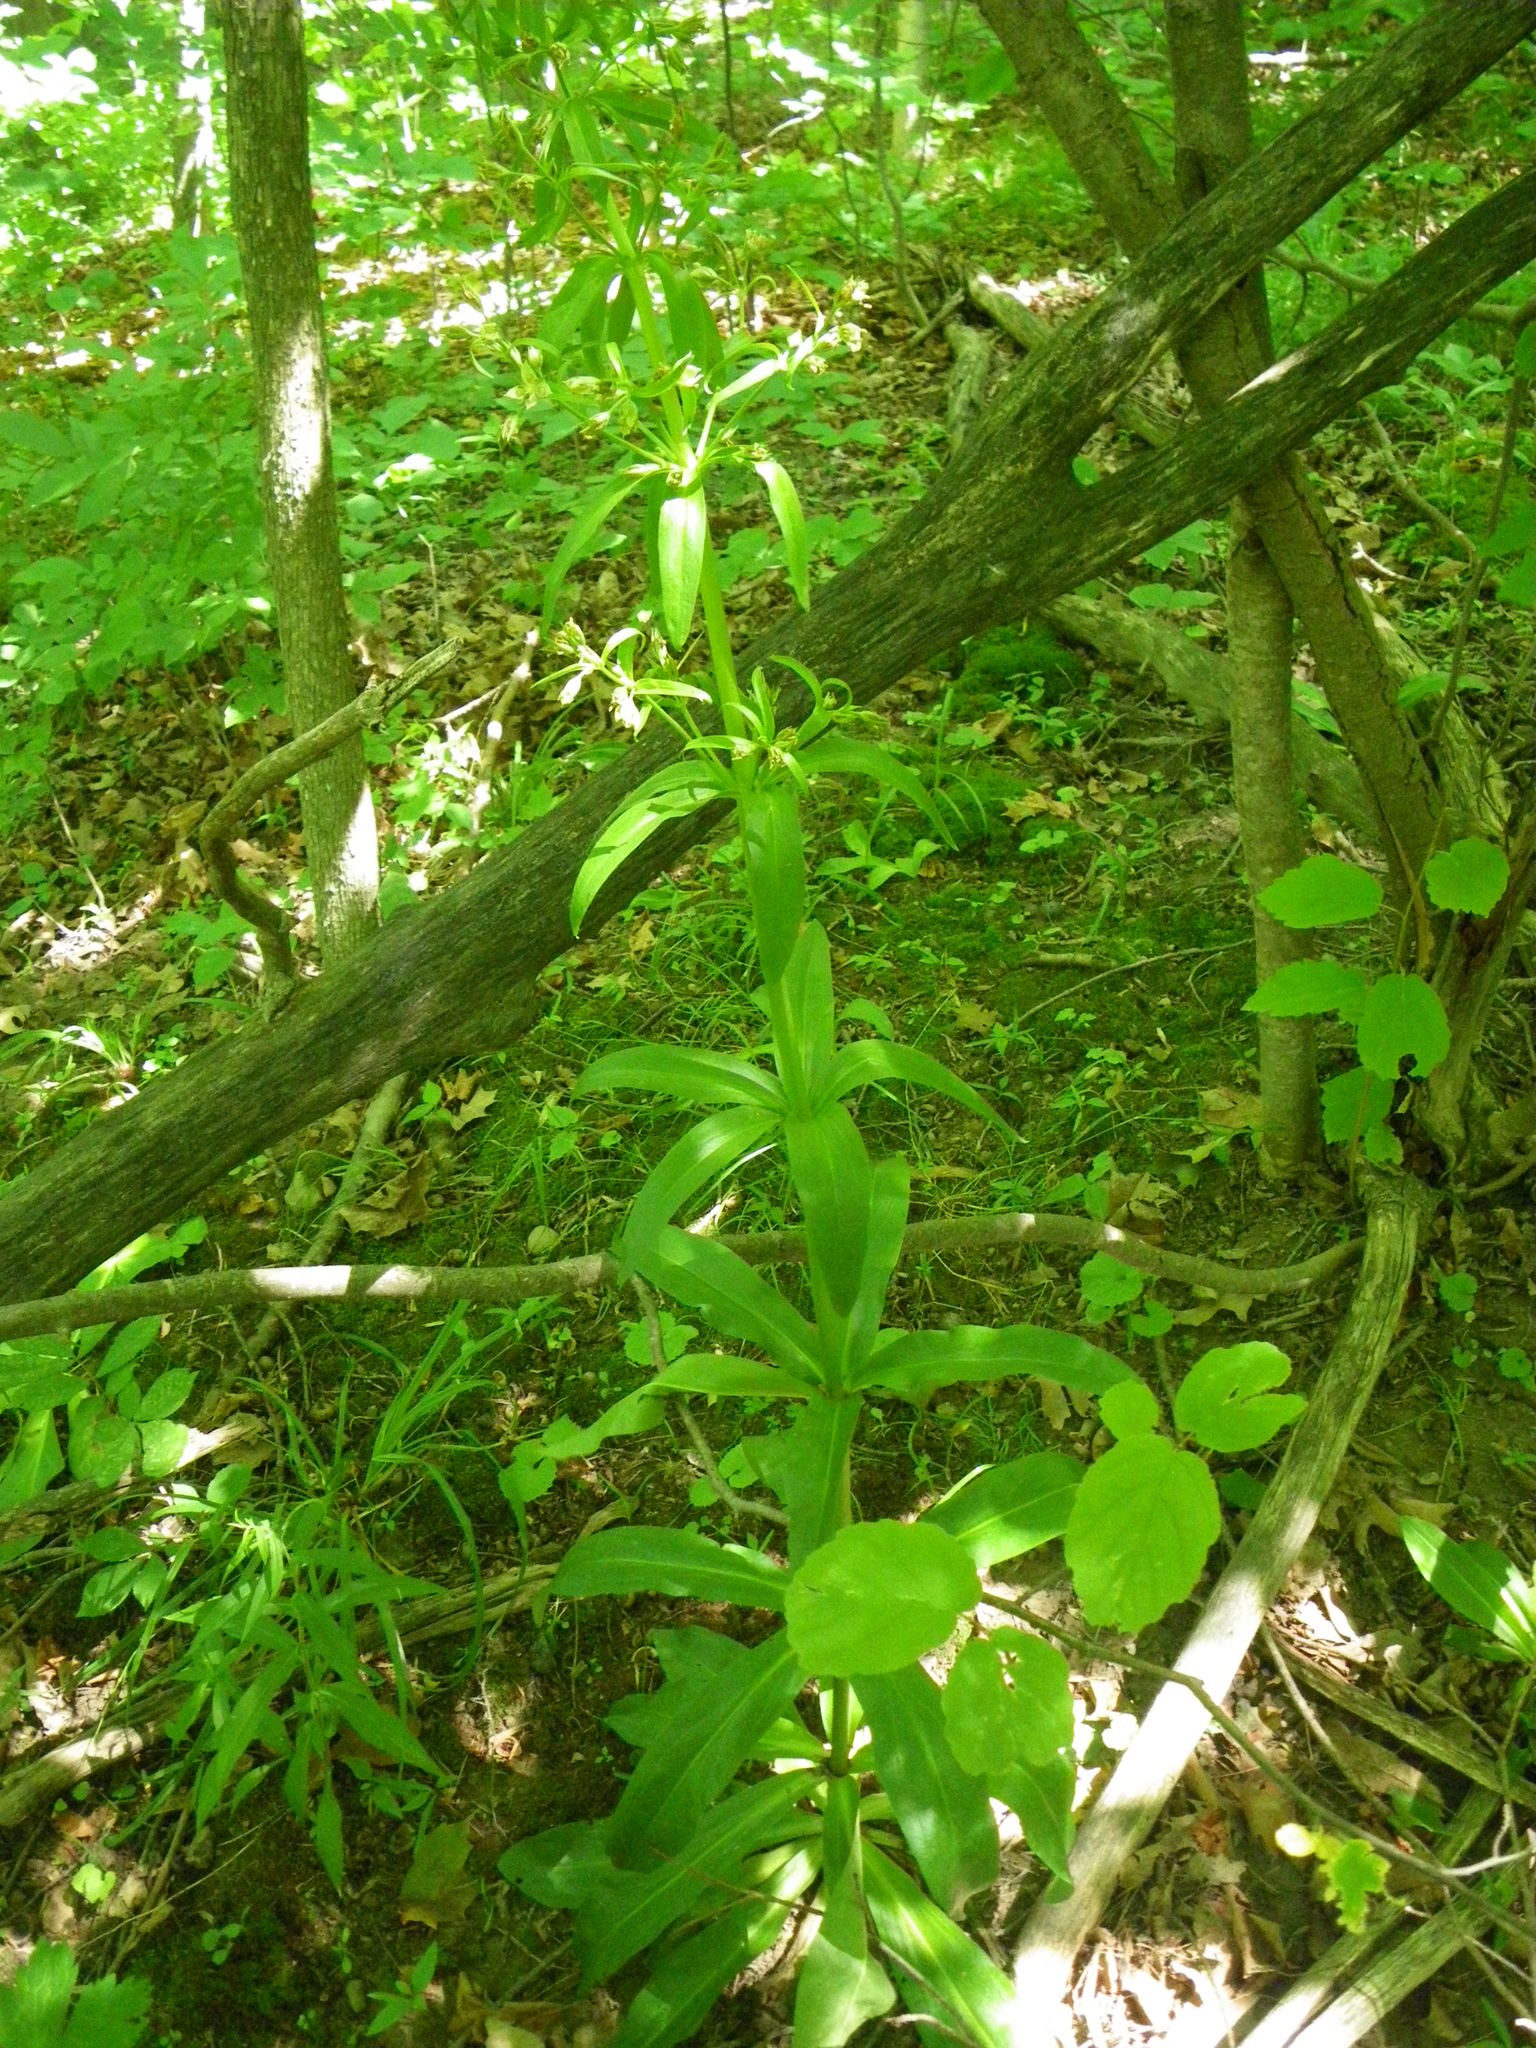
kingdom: Plantae
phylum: Tracheophyta
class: Magnoliopsida
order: Gentianales
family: Gentianaceae
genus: Frasera
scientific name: Frasera caroliniensis
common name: American columbo
